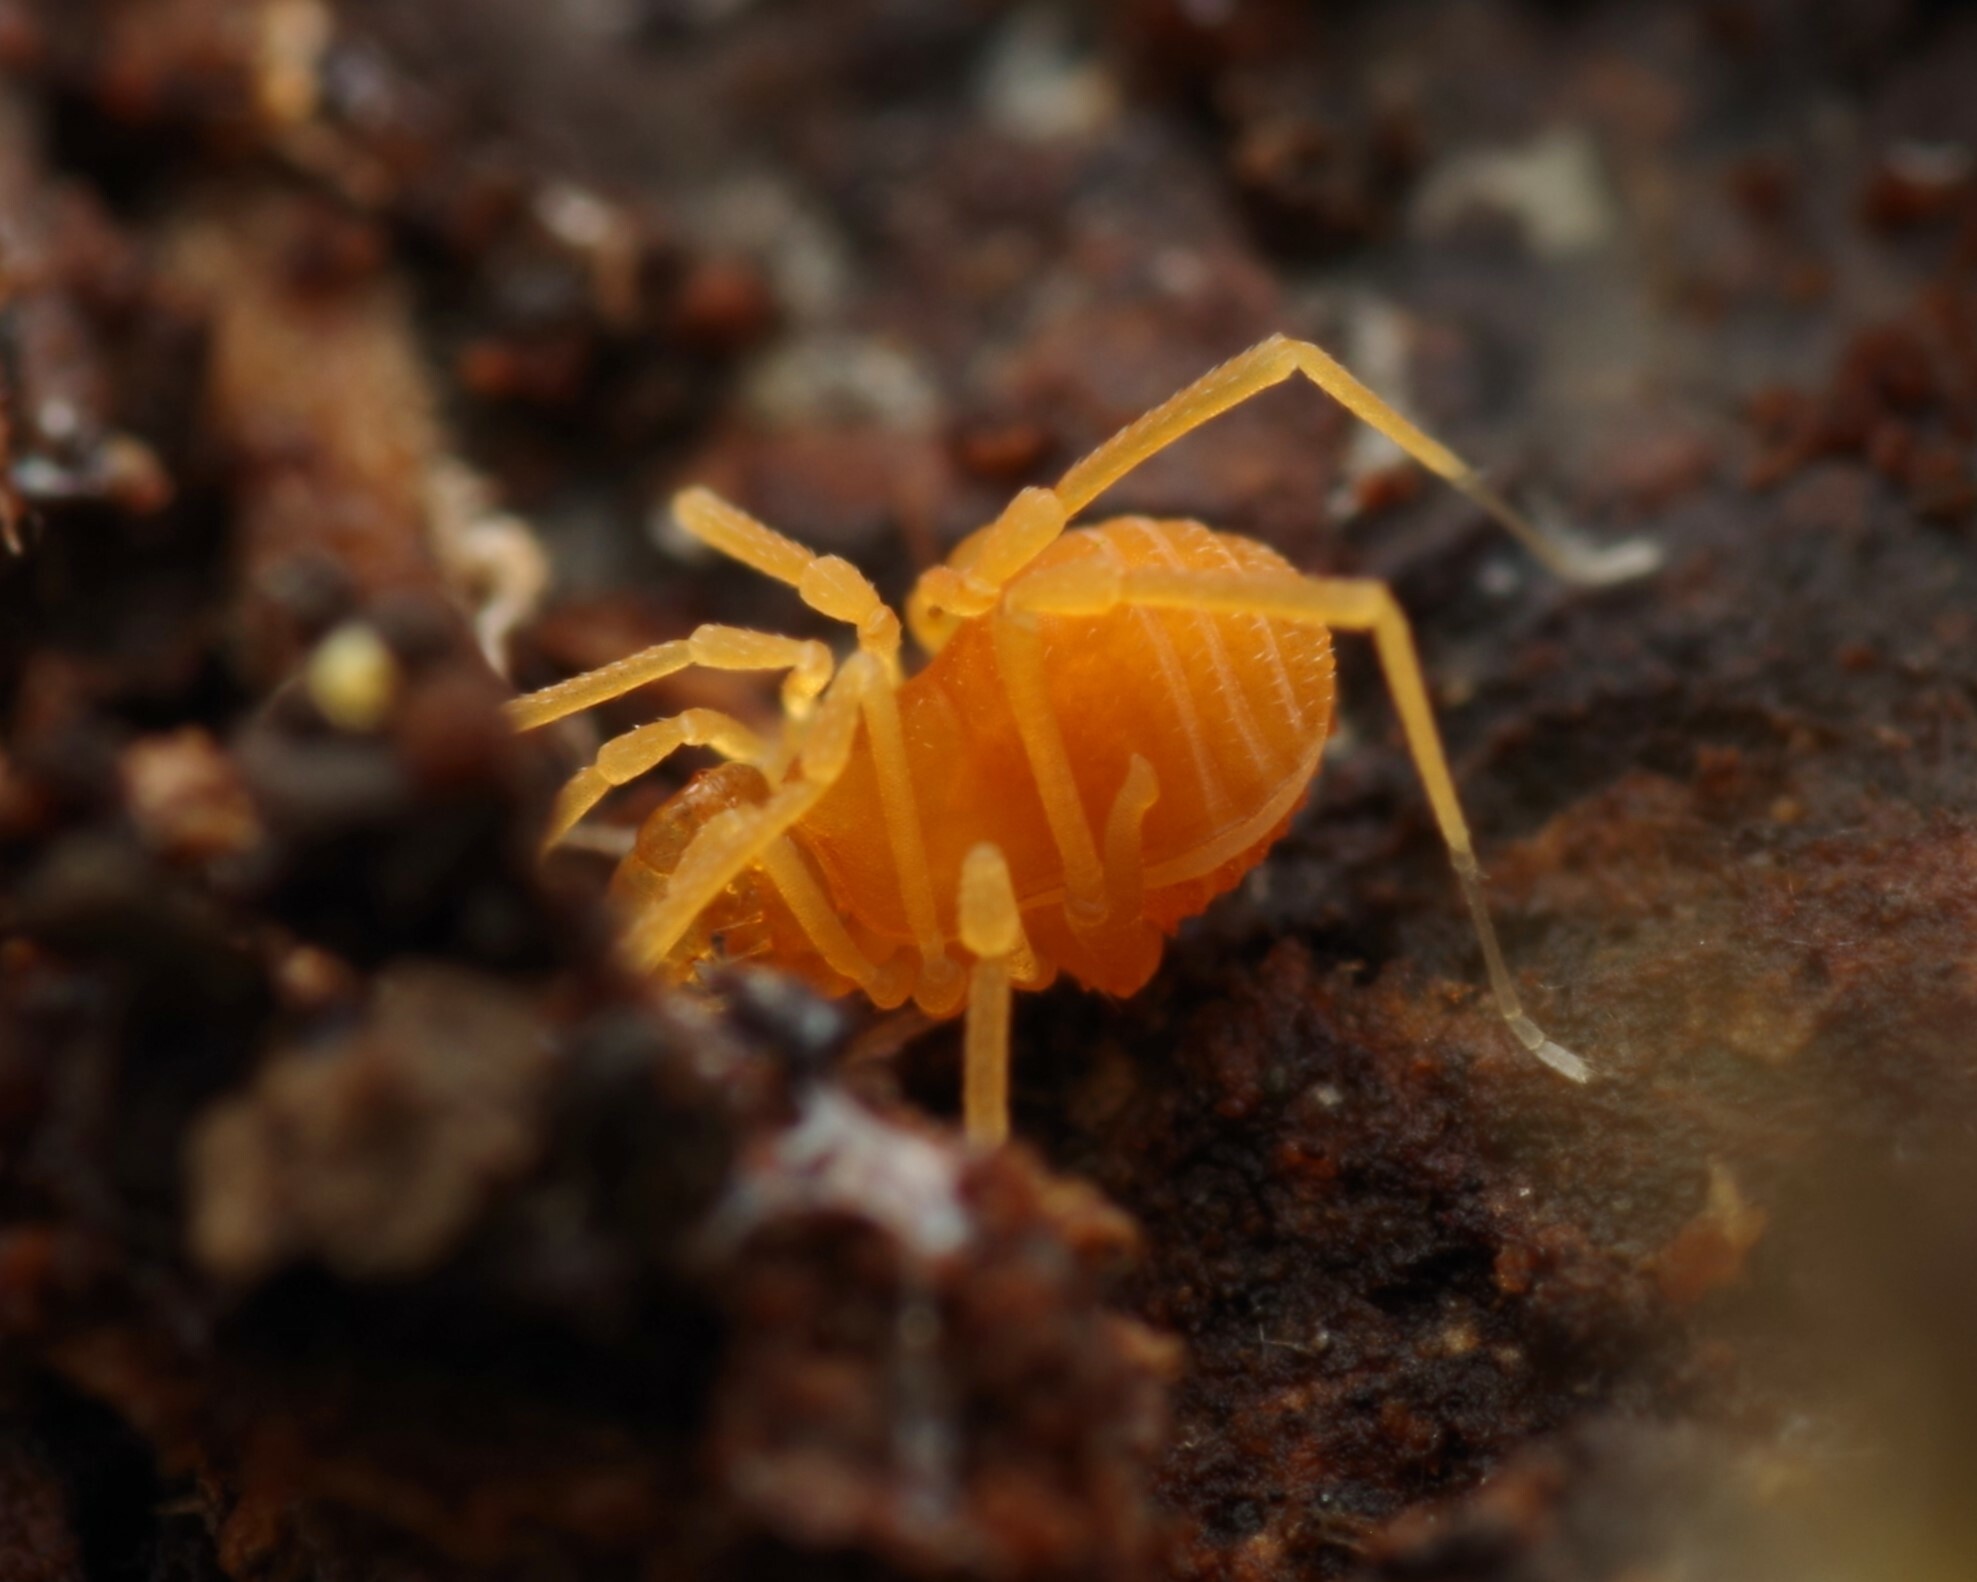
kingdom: Animalia
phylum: Arthropoda
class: Arachnida
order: Opiliones
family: Phalangodidae
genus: Scotolemon
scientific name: Scotolemon doriae
